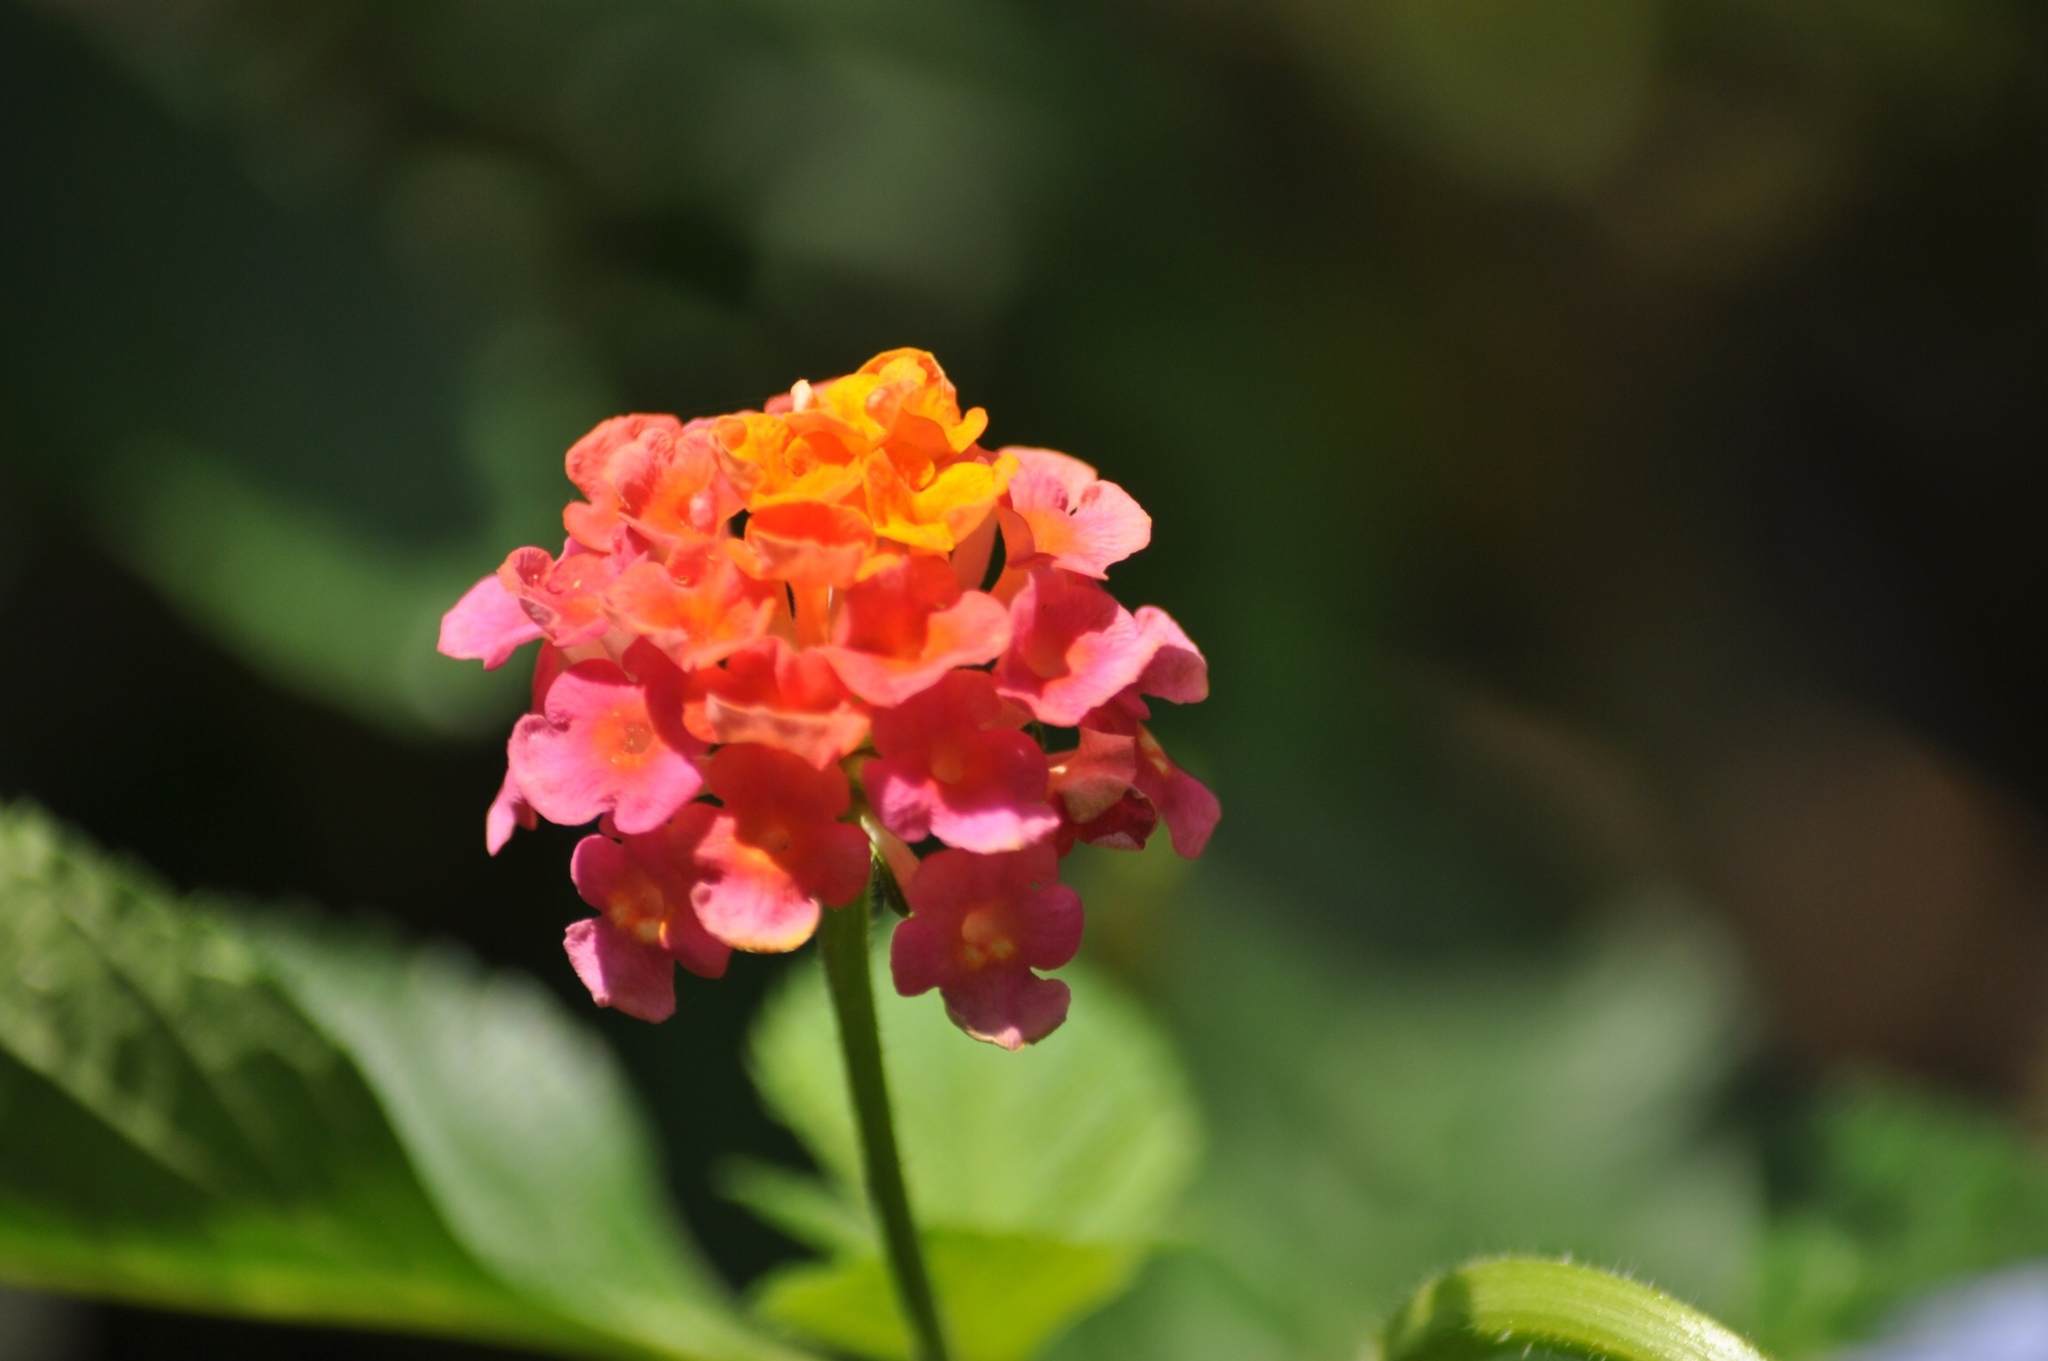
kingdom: Plantae
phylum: Tracheophyta
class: Magnoliopsida
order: Lamiales
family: Verbenaceae
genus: Lantana
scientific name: Lantana camara
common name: Lantana
